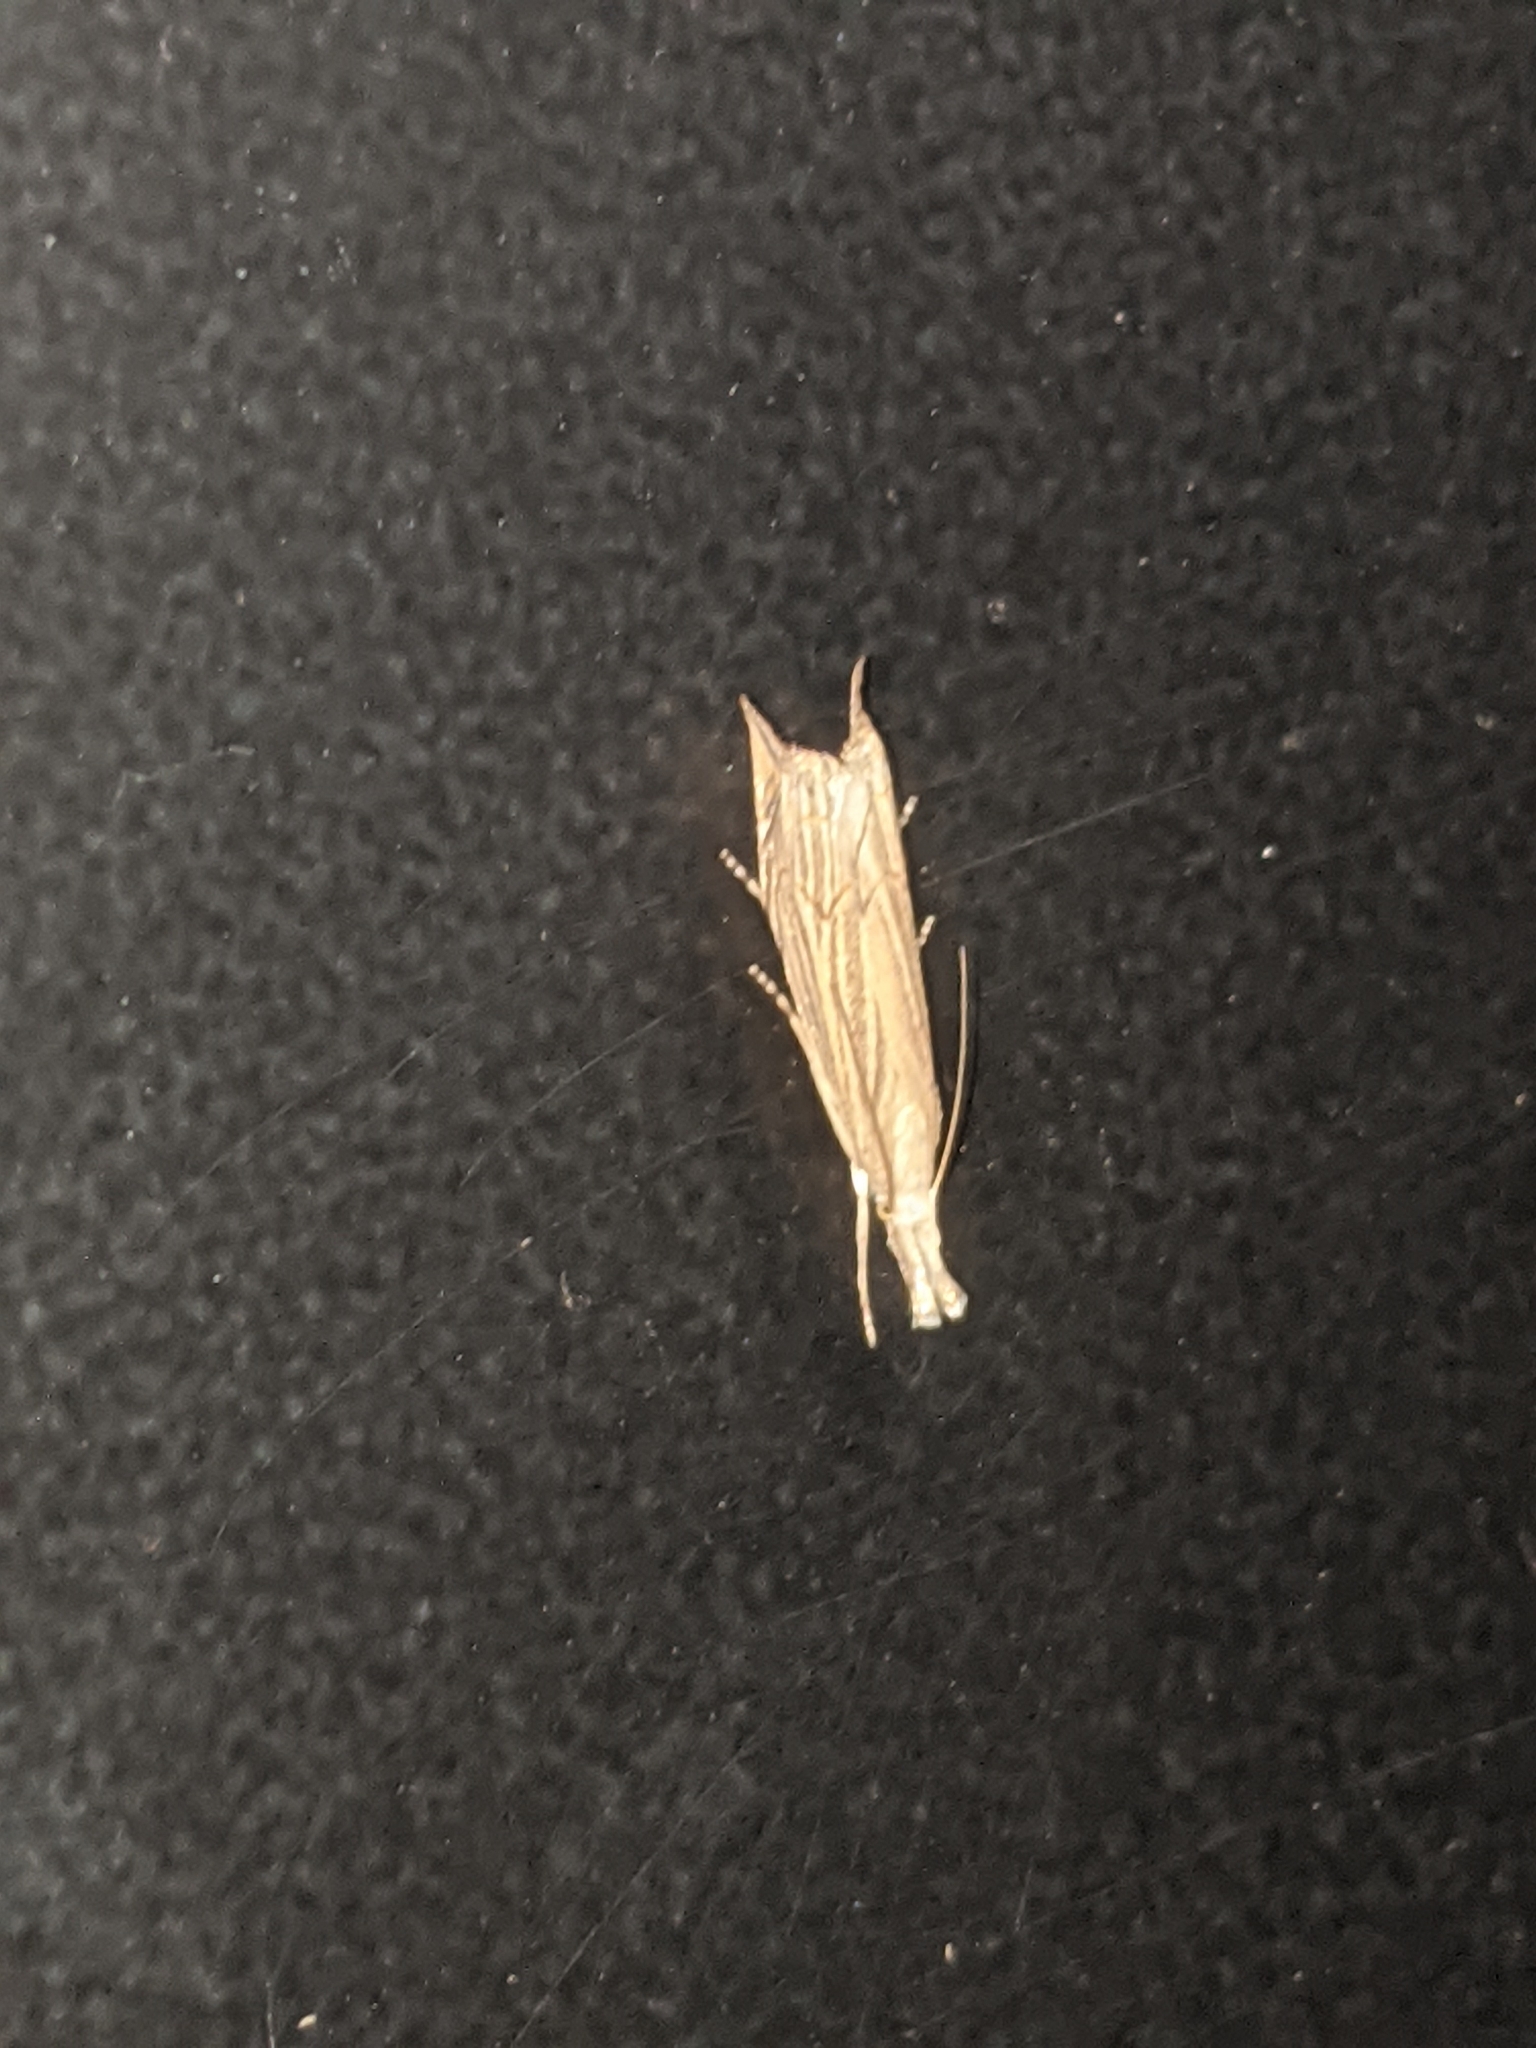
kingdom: Animalia
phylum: Arthropoda
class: Insecta
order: Lepidoptera
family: Crambidae
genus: Metacrambus
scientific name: Metacrambus carectellus
